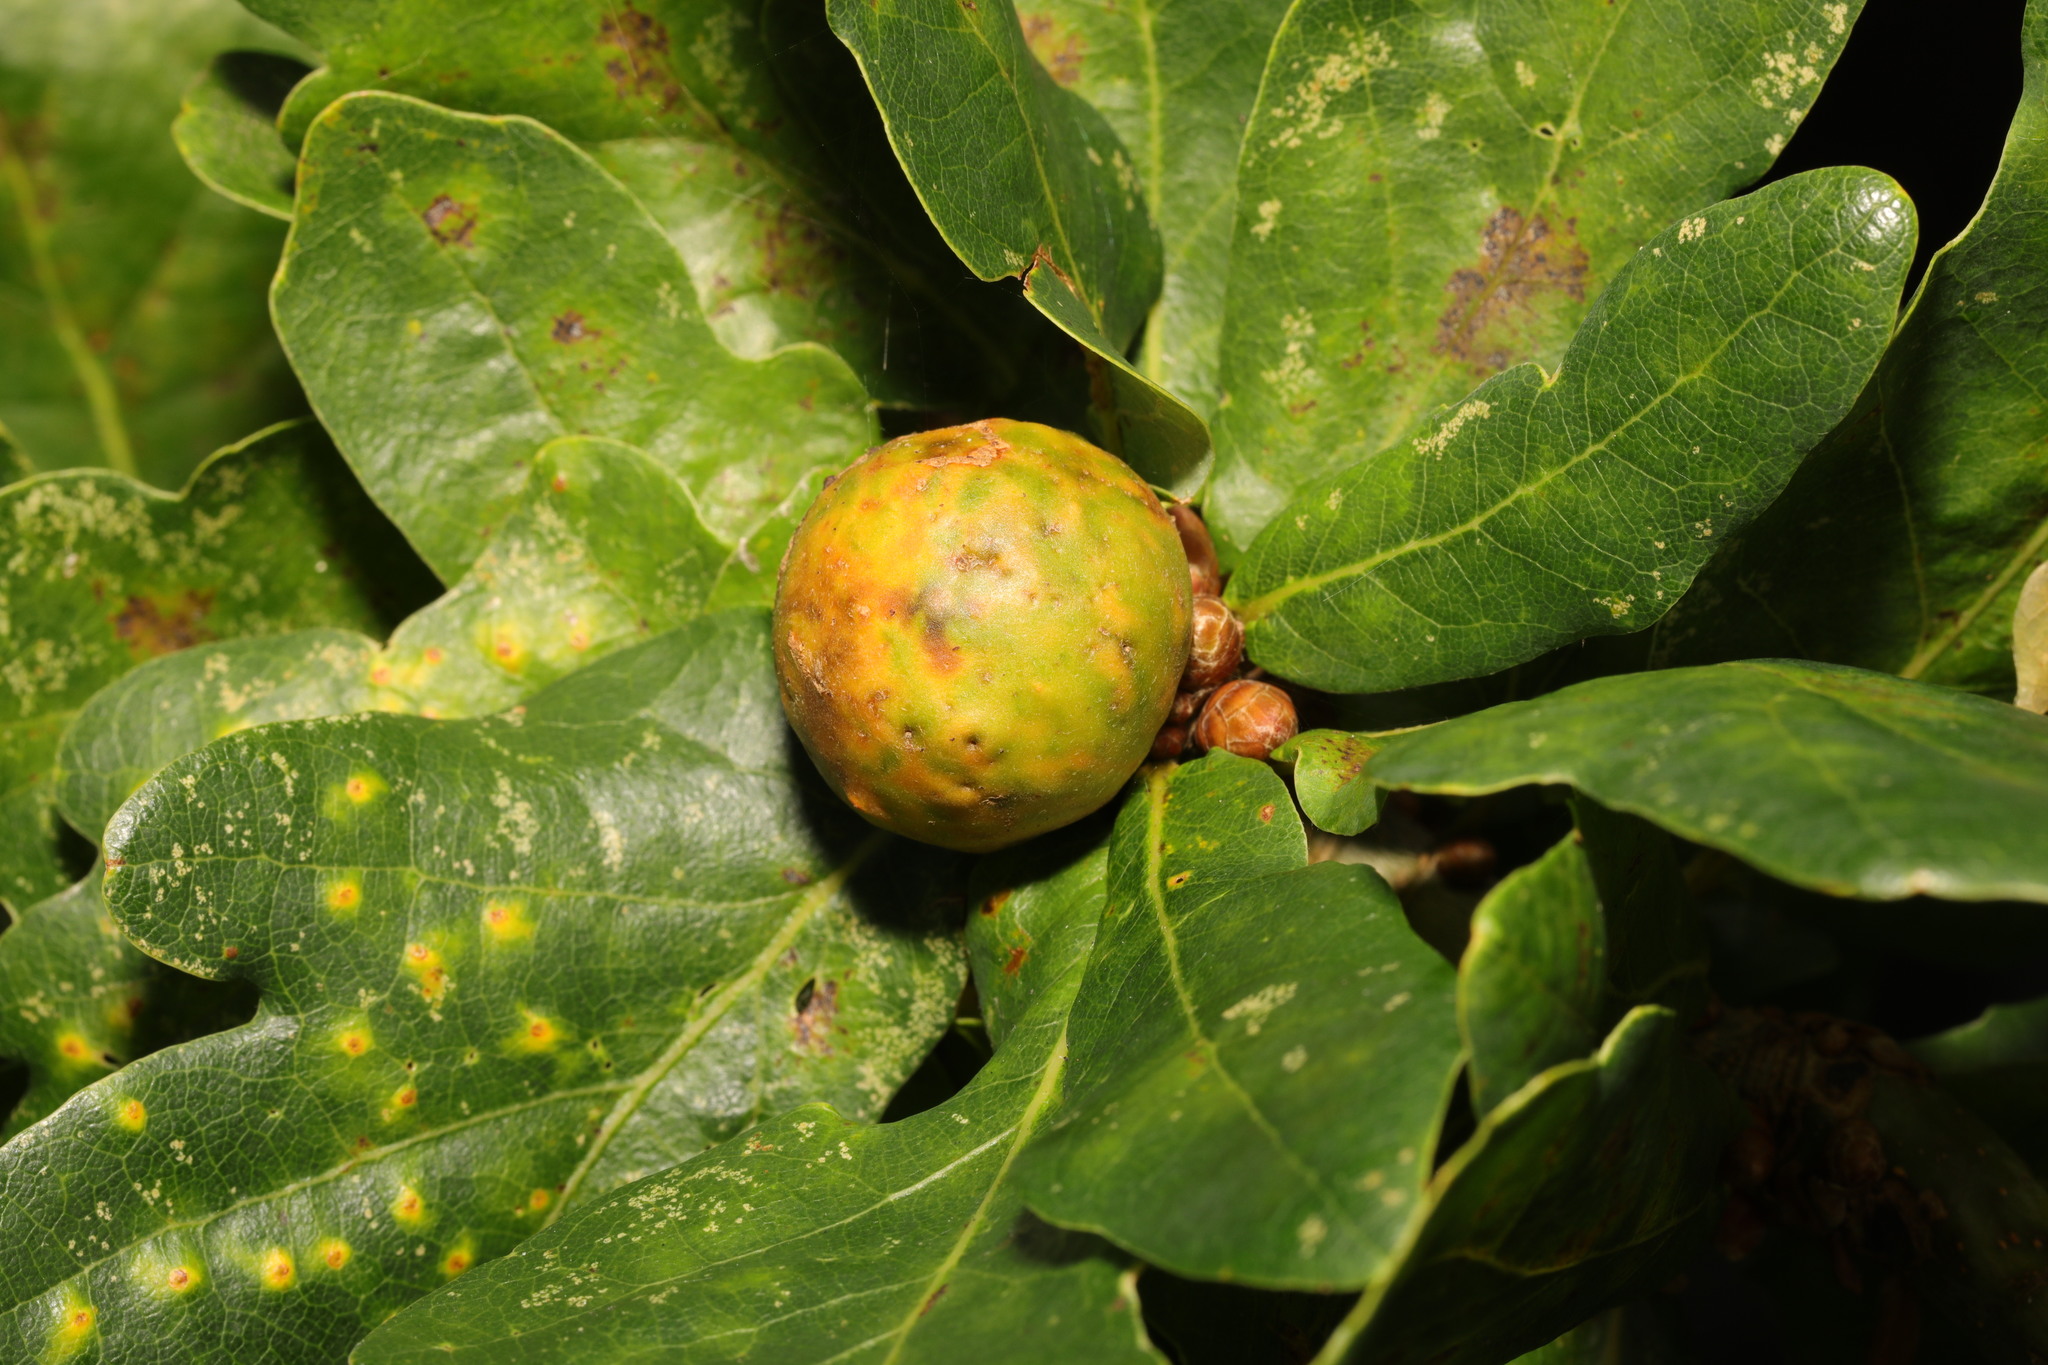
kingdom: Animalia
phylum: Arthropoda
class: Insecta
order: Hymenoptera
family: Cynipidae
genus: Andricus
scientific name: Andricus kollari
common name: Marble gall
